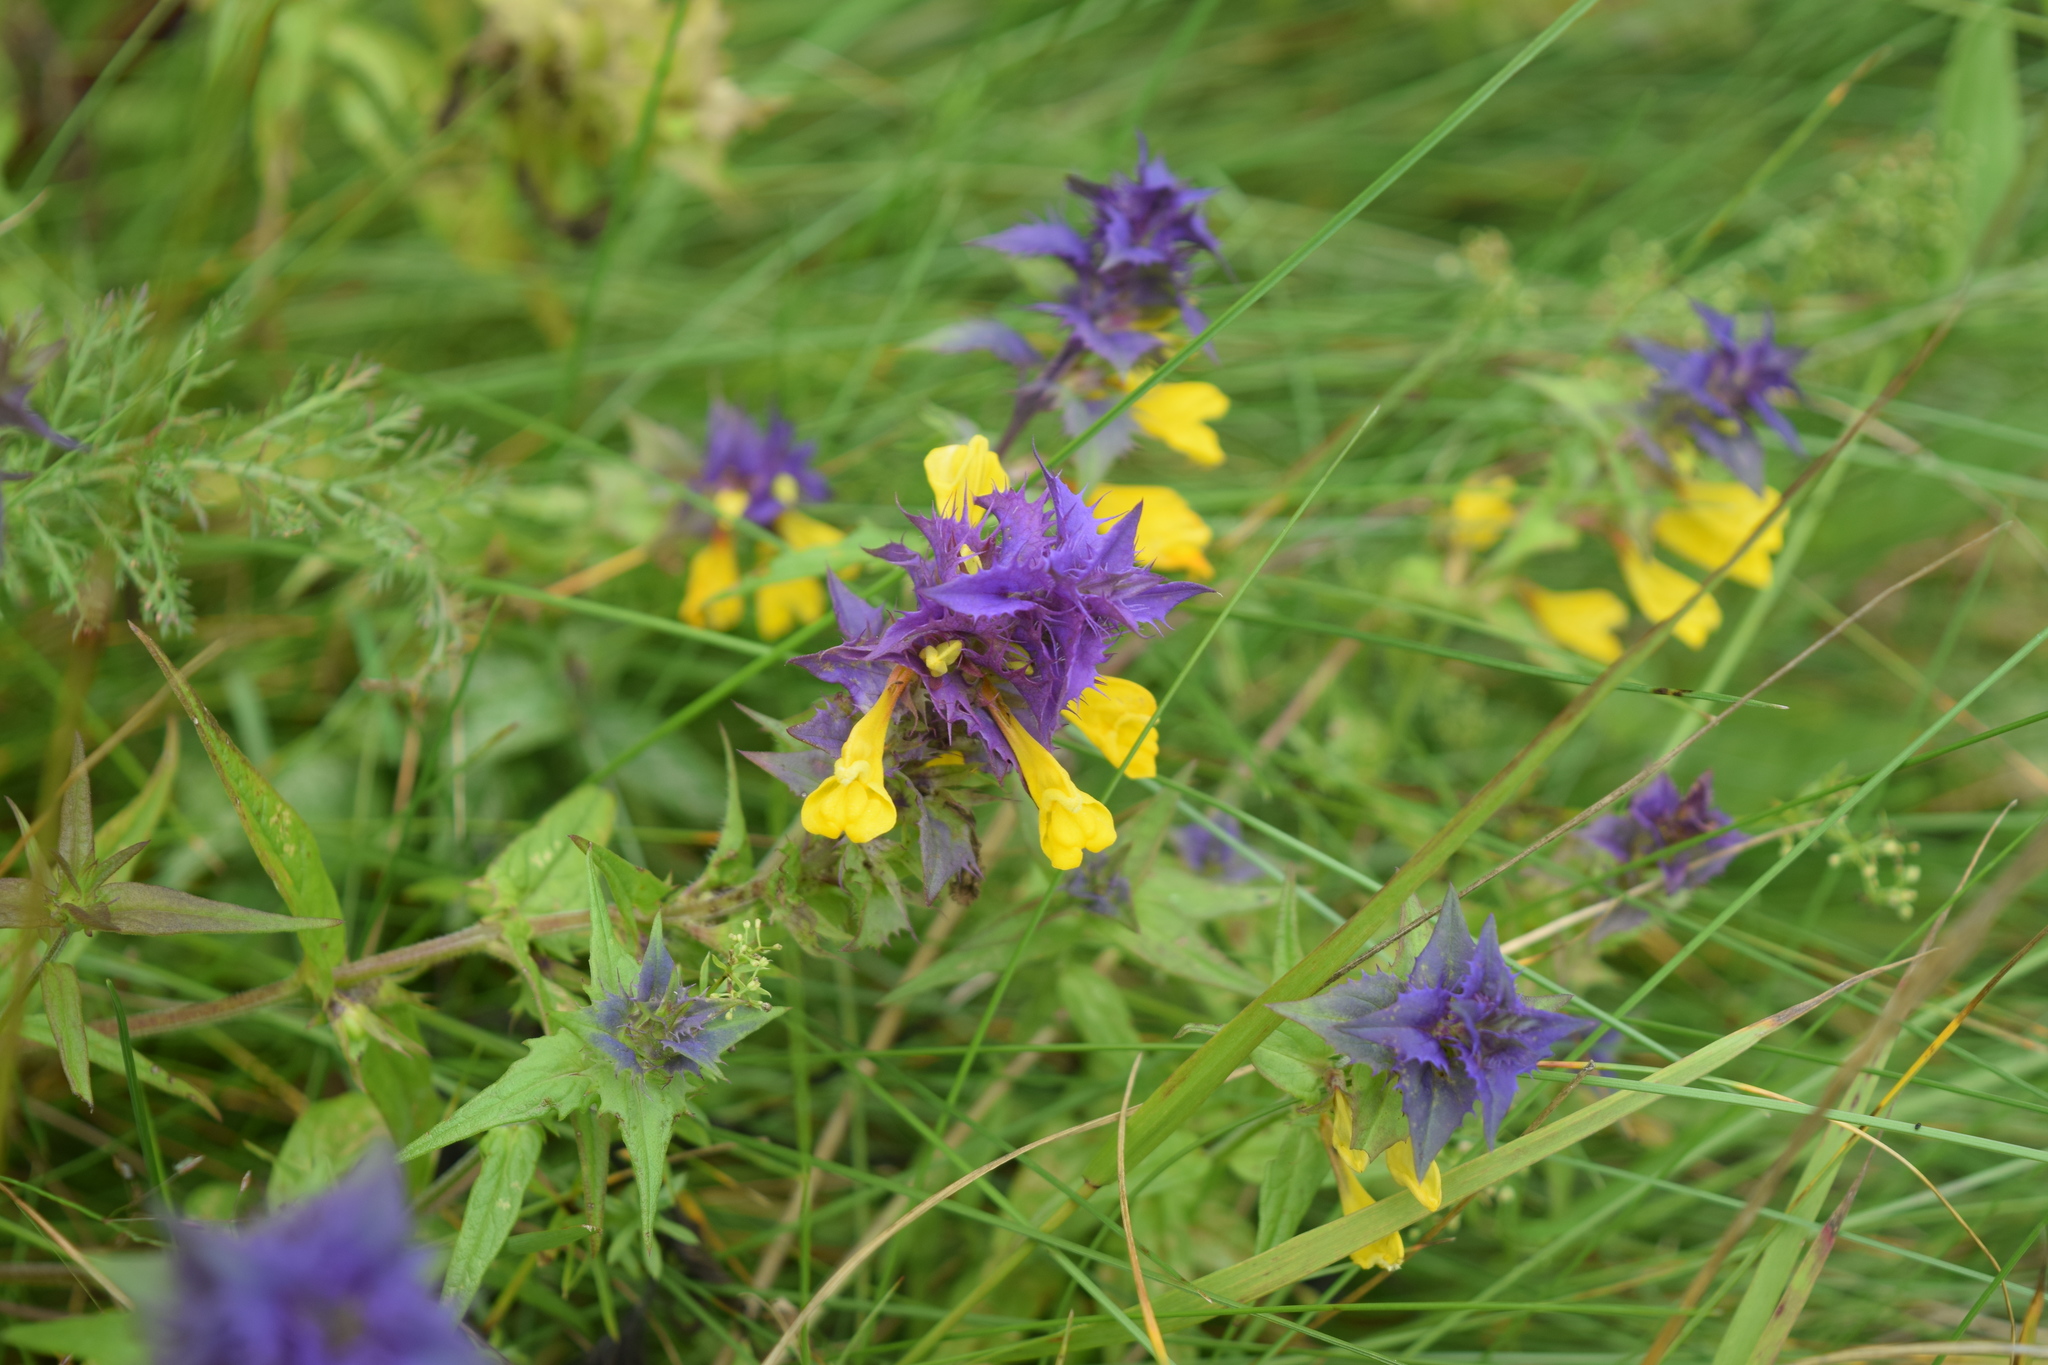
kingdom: Plantae
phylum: Tracheophyta
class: Magnoliopsida
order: Lamiales
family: Orobanchaceae
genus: Melampyrum
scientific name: Melampyrum nemorosum
